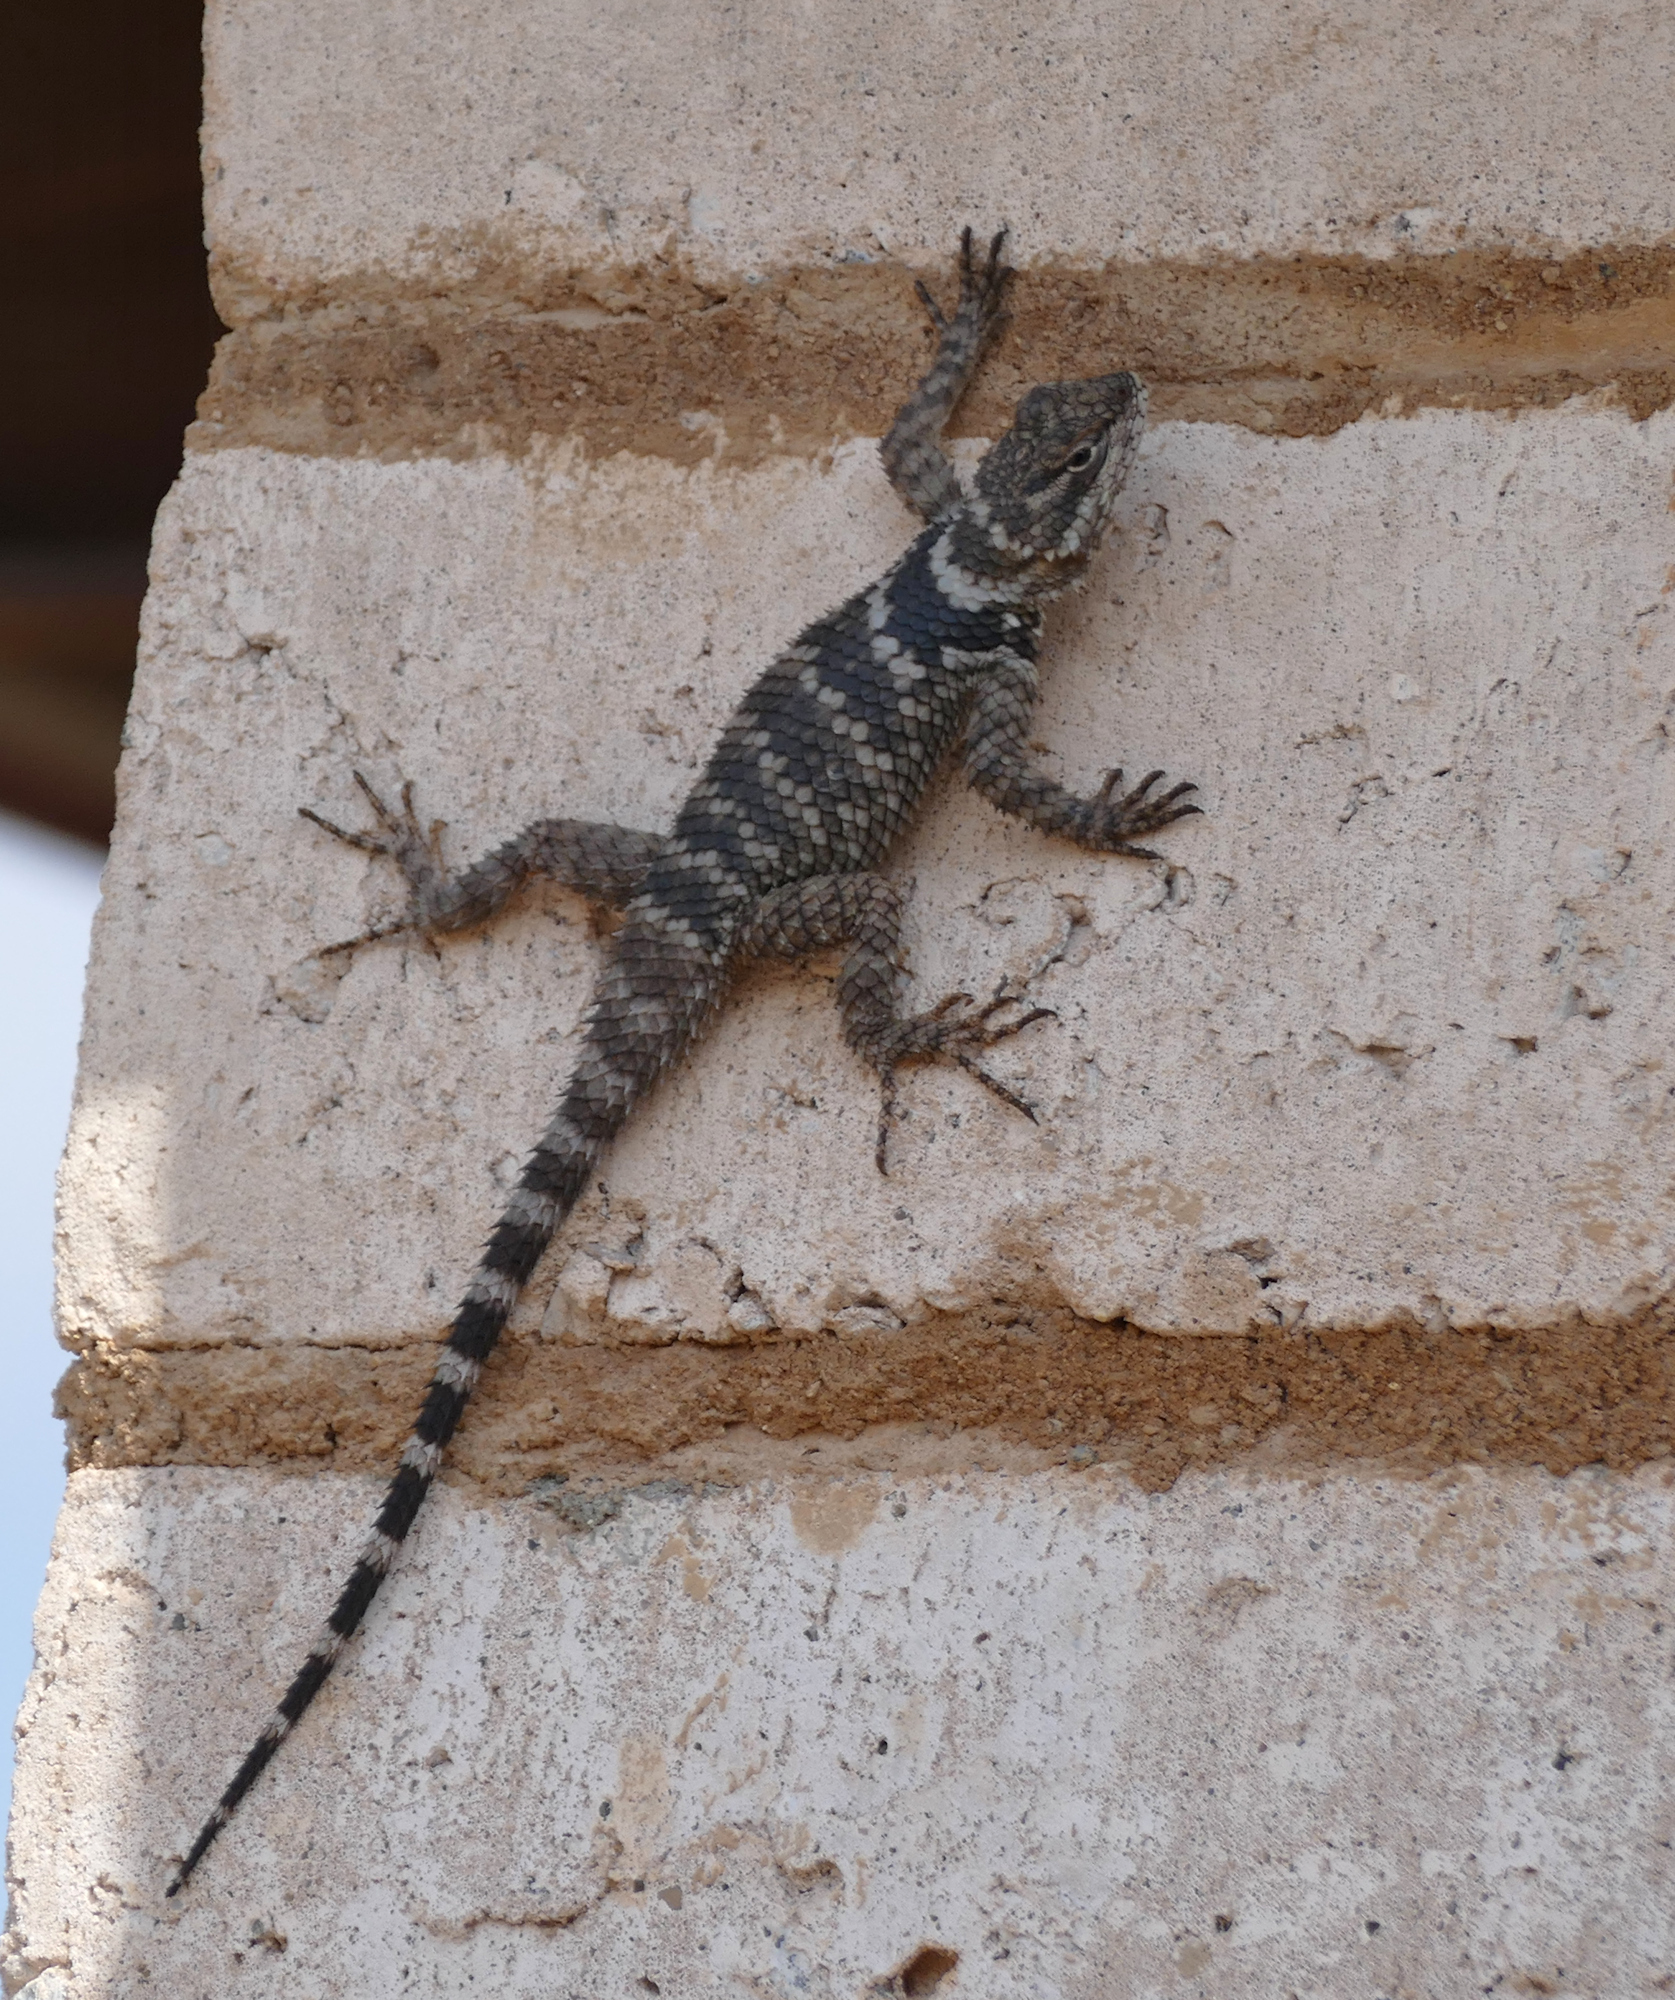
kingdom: Animalia
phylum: Chordata
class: Squamata
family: Phrynosomatidae
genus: Sceloporus
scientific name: Sceloporus poinsettii
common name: Crevice spiny lizard
